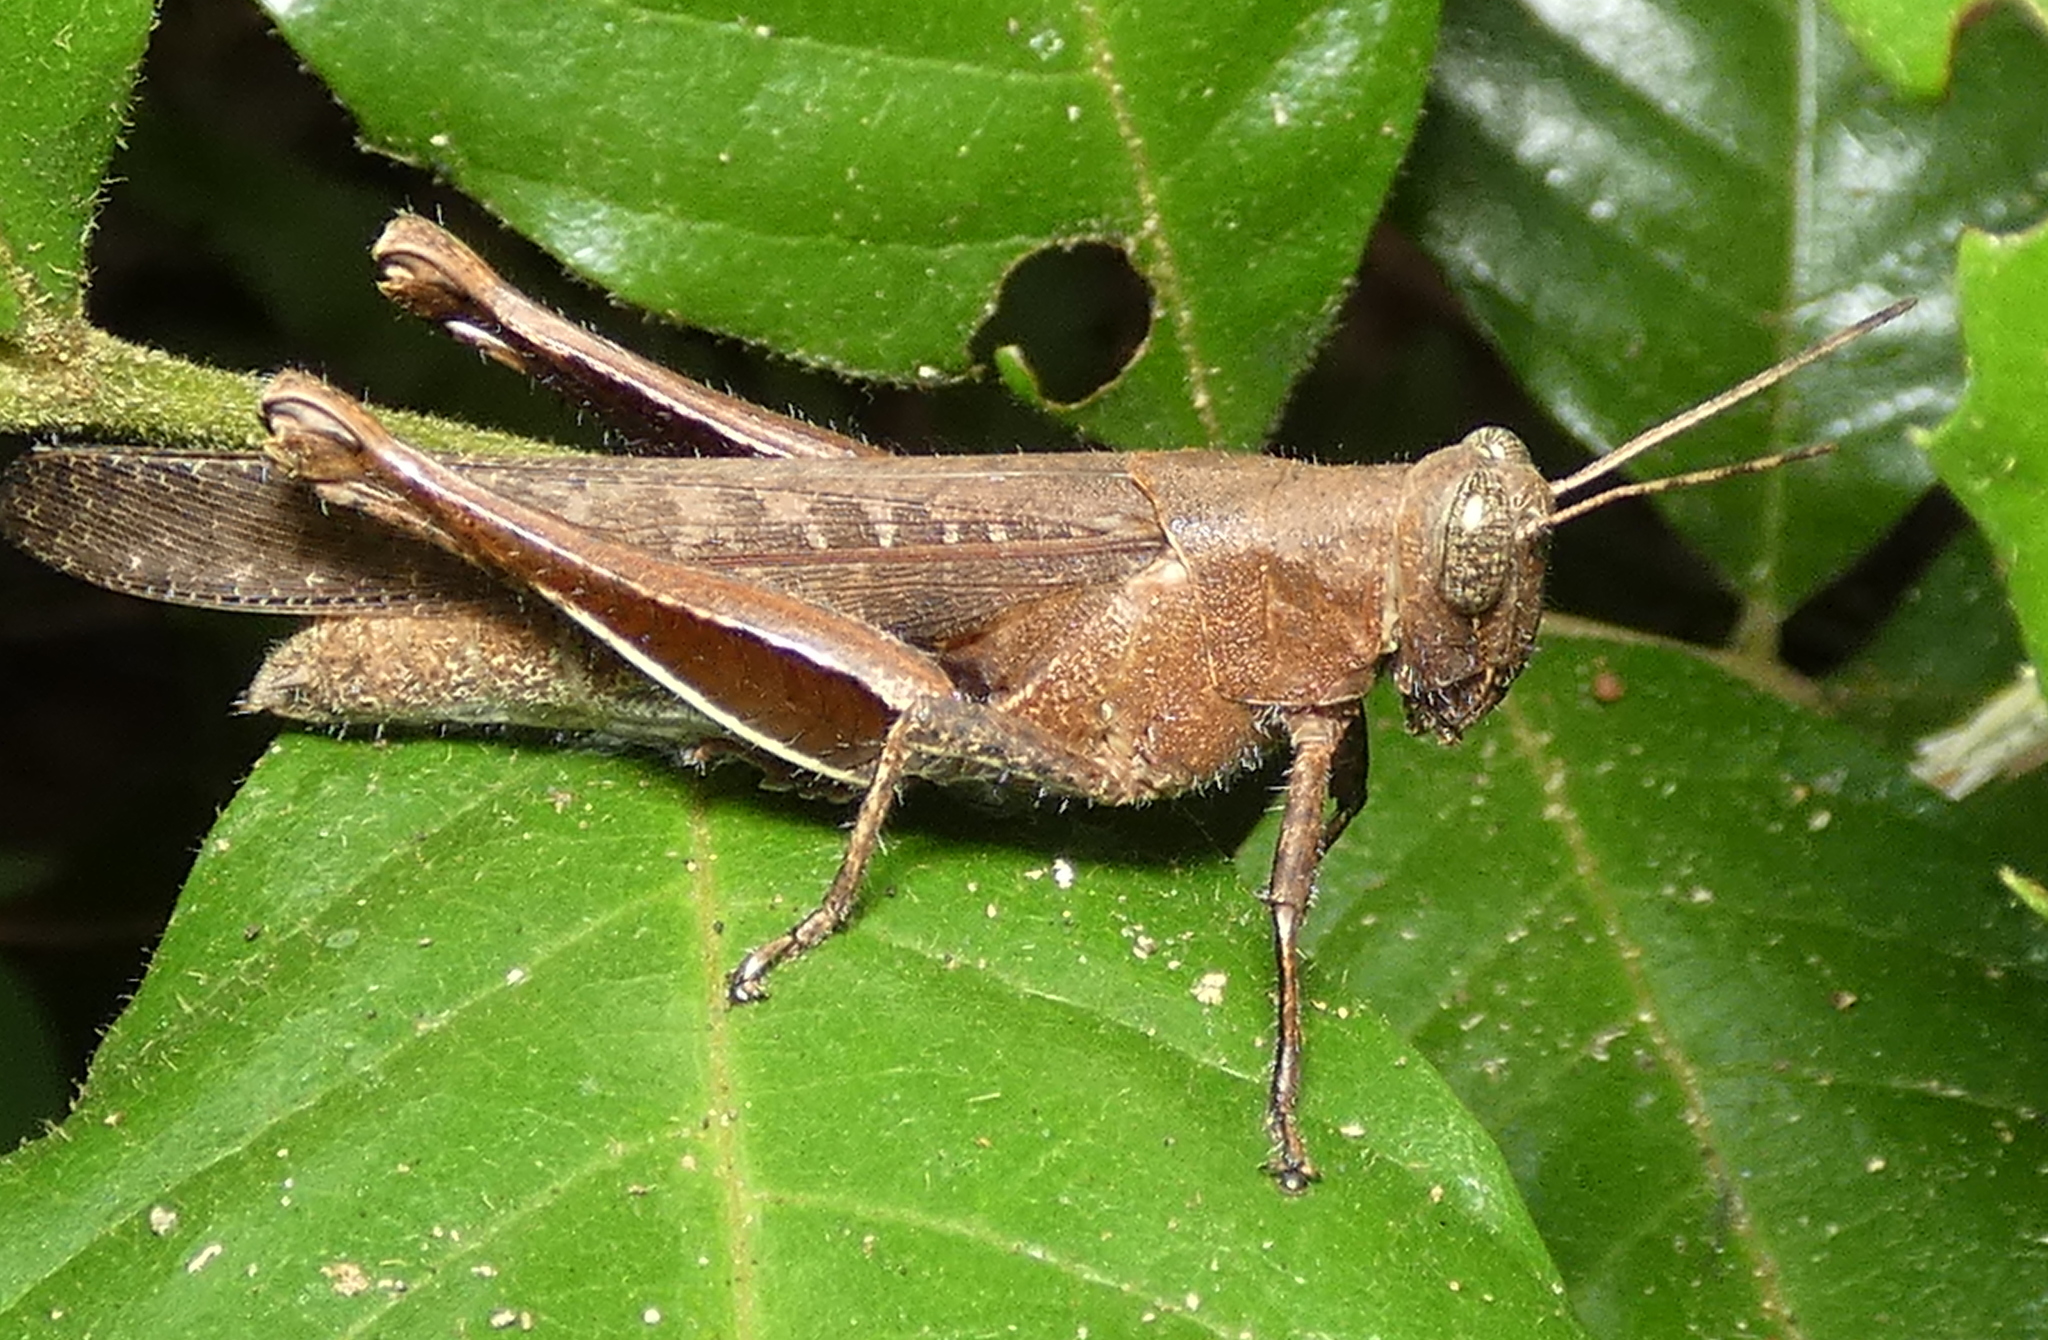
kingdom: Animalia
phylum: Arthropoda
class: Insecta
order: Orthoptera
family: Acrididae
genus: Abracris
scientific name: Abracris flavolineata
